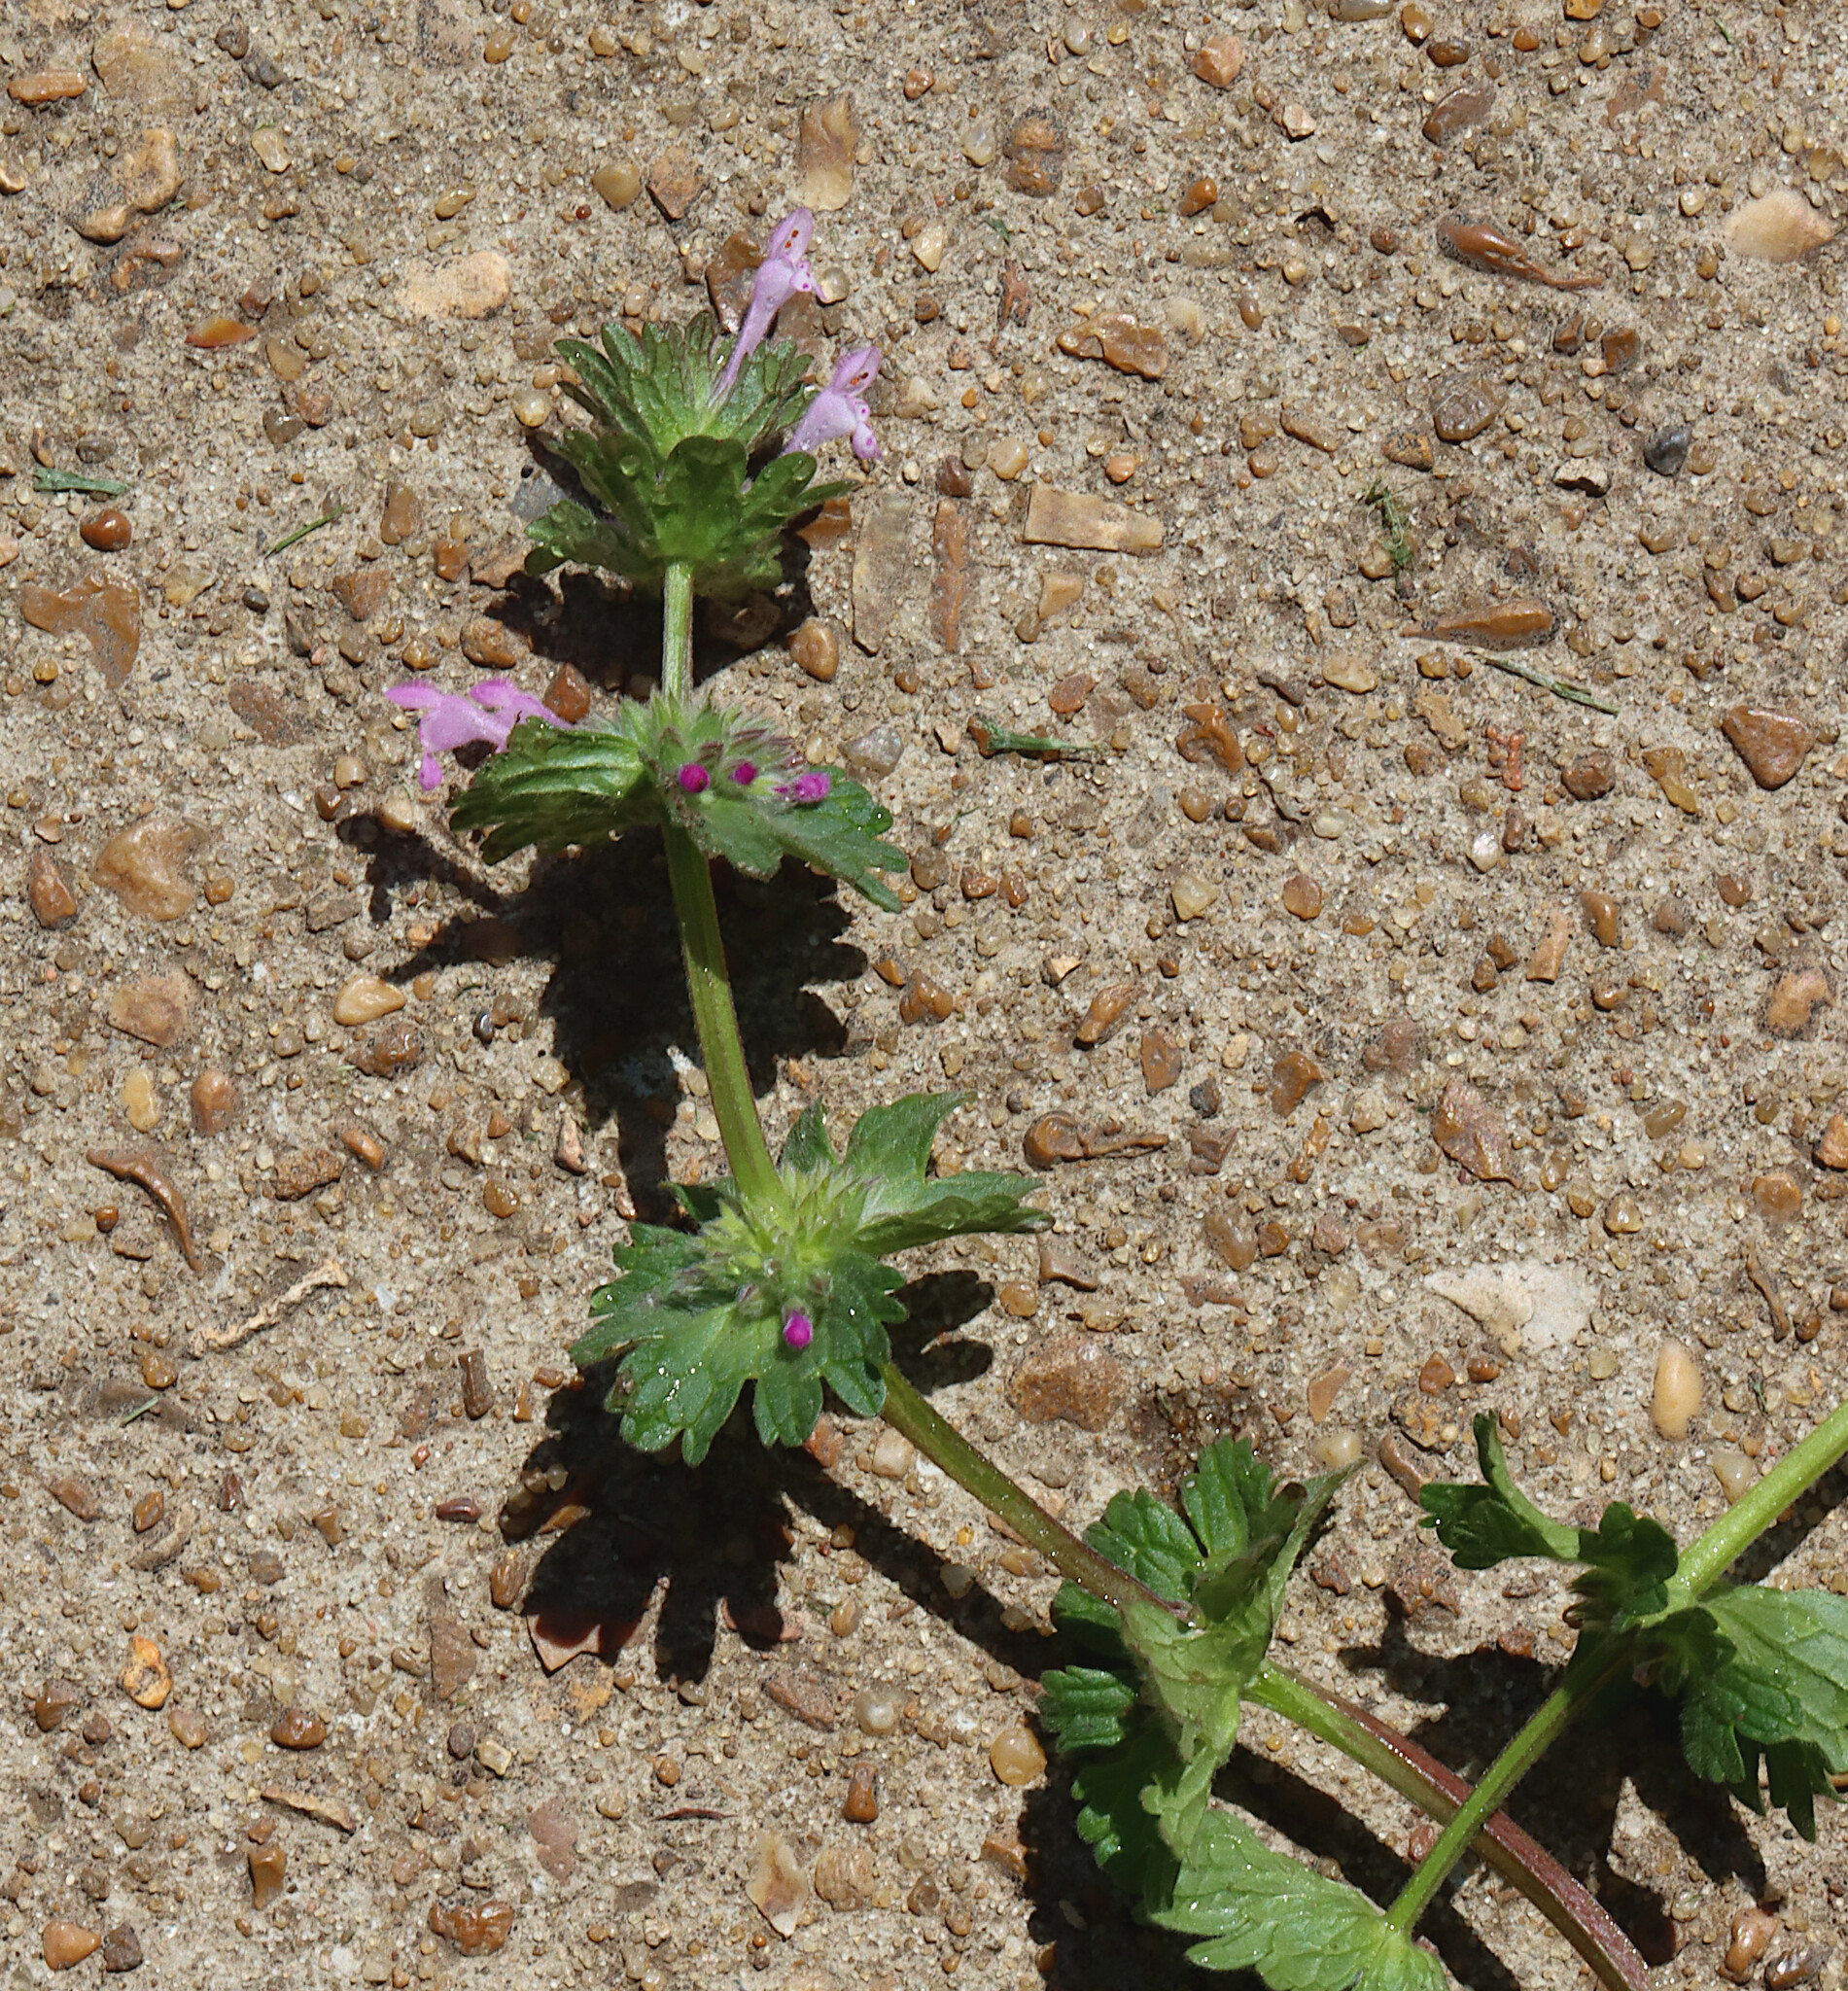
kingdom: Plantae
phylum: Tracheophyta
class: Magnoliopsida
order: Lamiales
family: Lamiaceae
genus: Lamium
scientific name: Lamium amplexicaule
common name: Henbit dead-nettle
